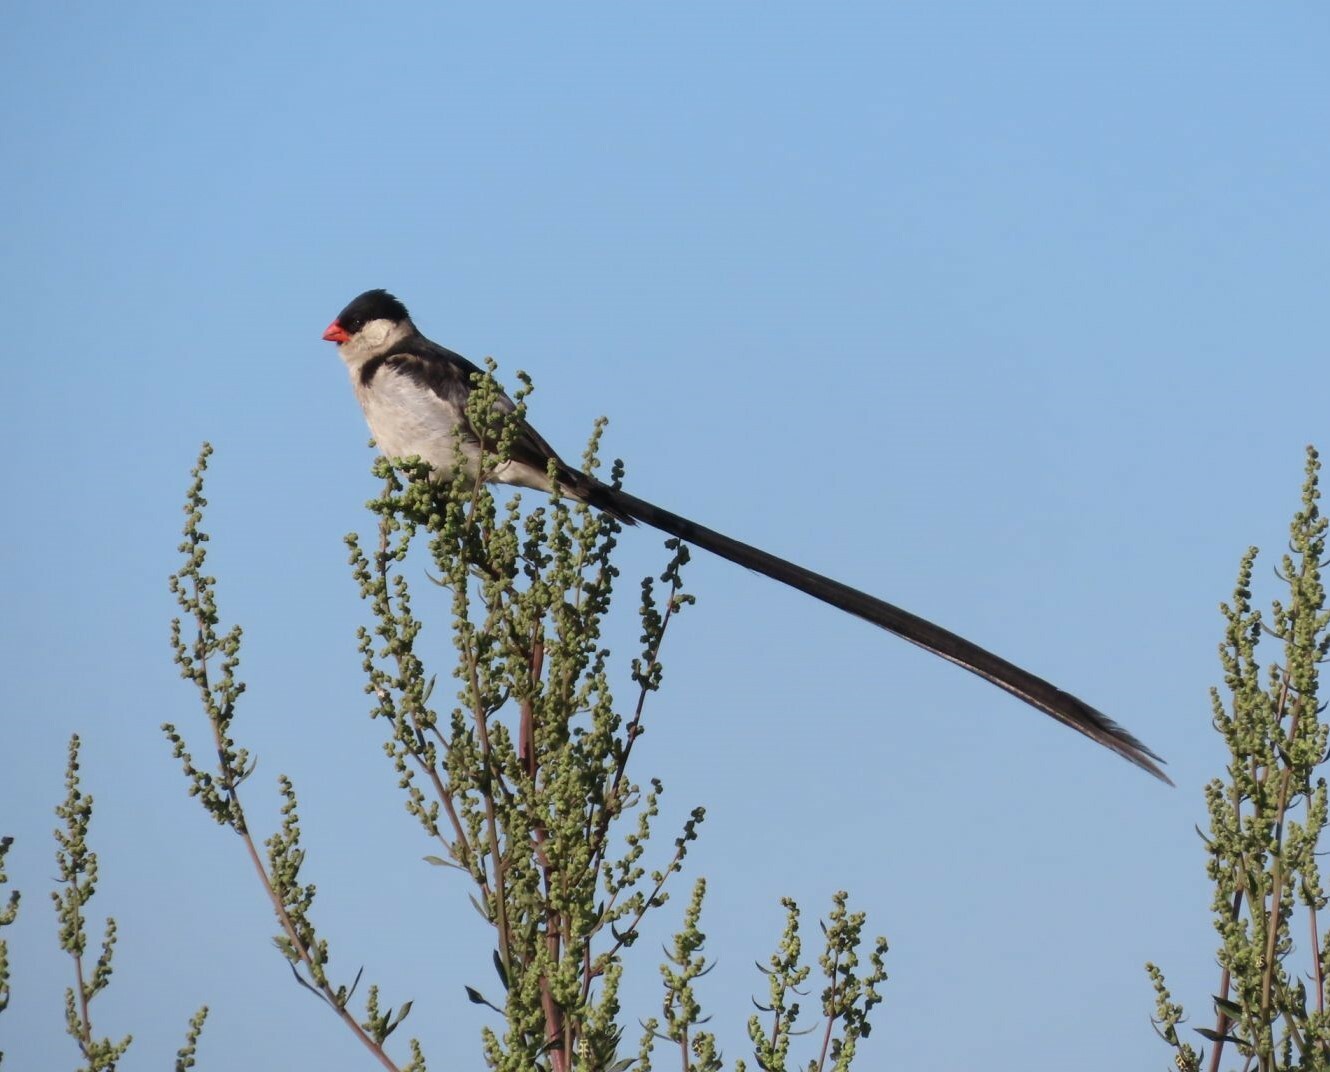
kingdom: Animalia
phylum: Chordata
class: Aves
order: Passeriformes
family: Viduidae
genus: Vidua
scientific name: Vidua macroura
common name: Pin-tailed whydah
